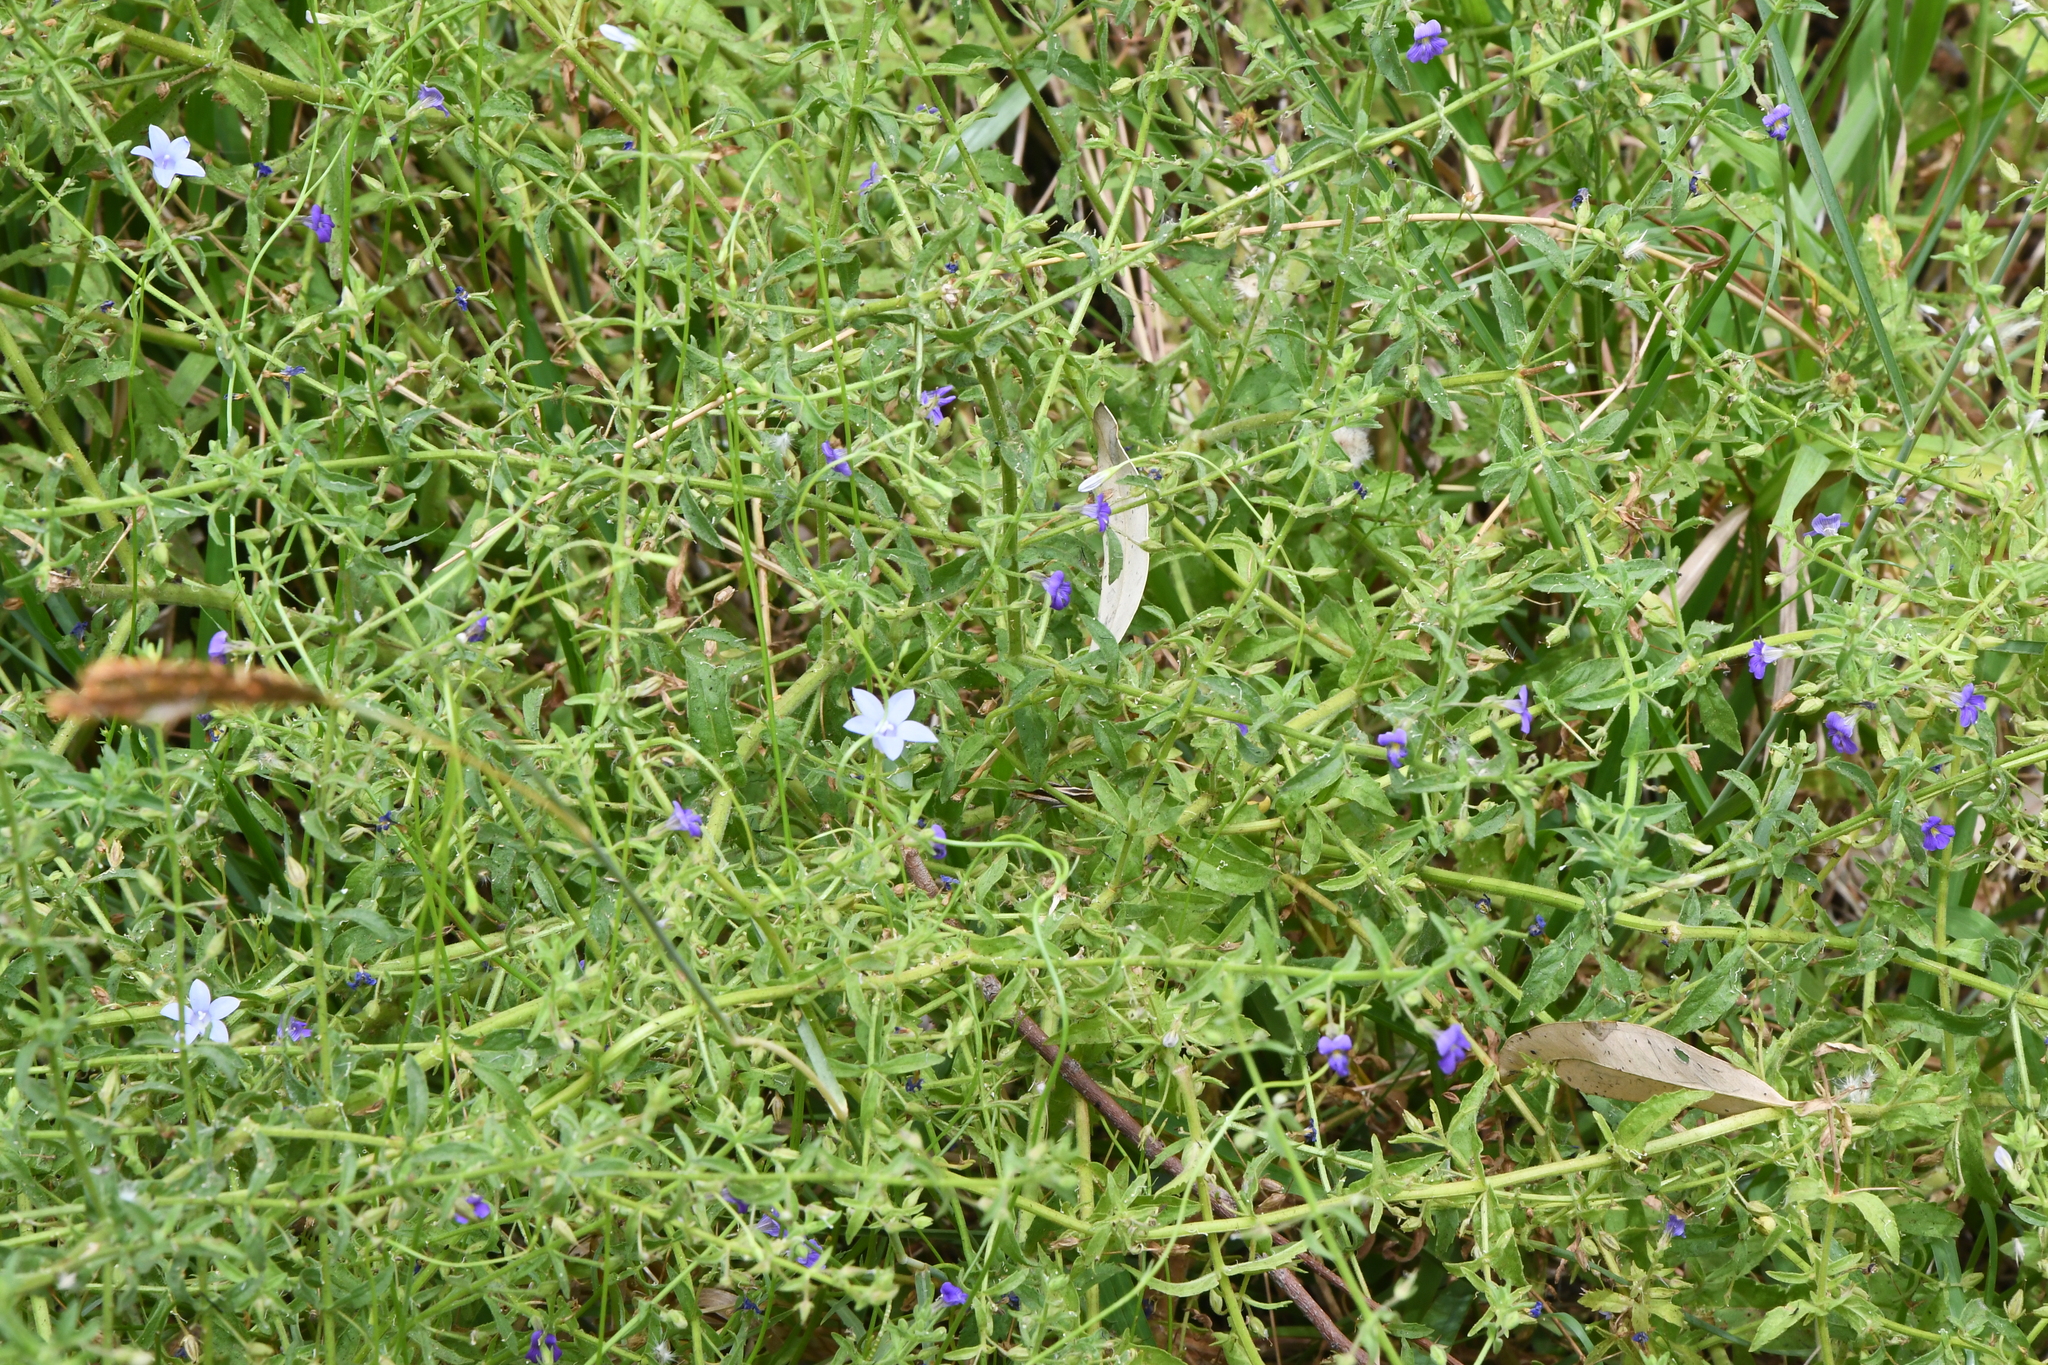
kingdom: Plantae
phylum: Tracheophyta
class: Magnoliopsida
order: Ericales
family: Primulaceae
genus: Lysimachia
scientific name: Lysimachia loeflingii
